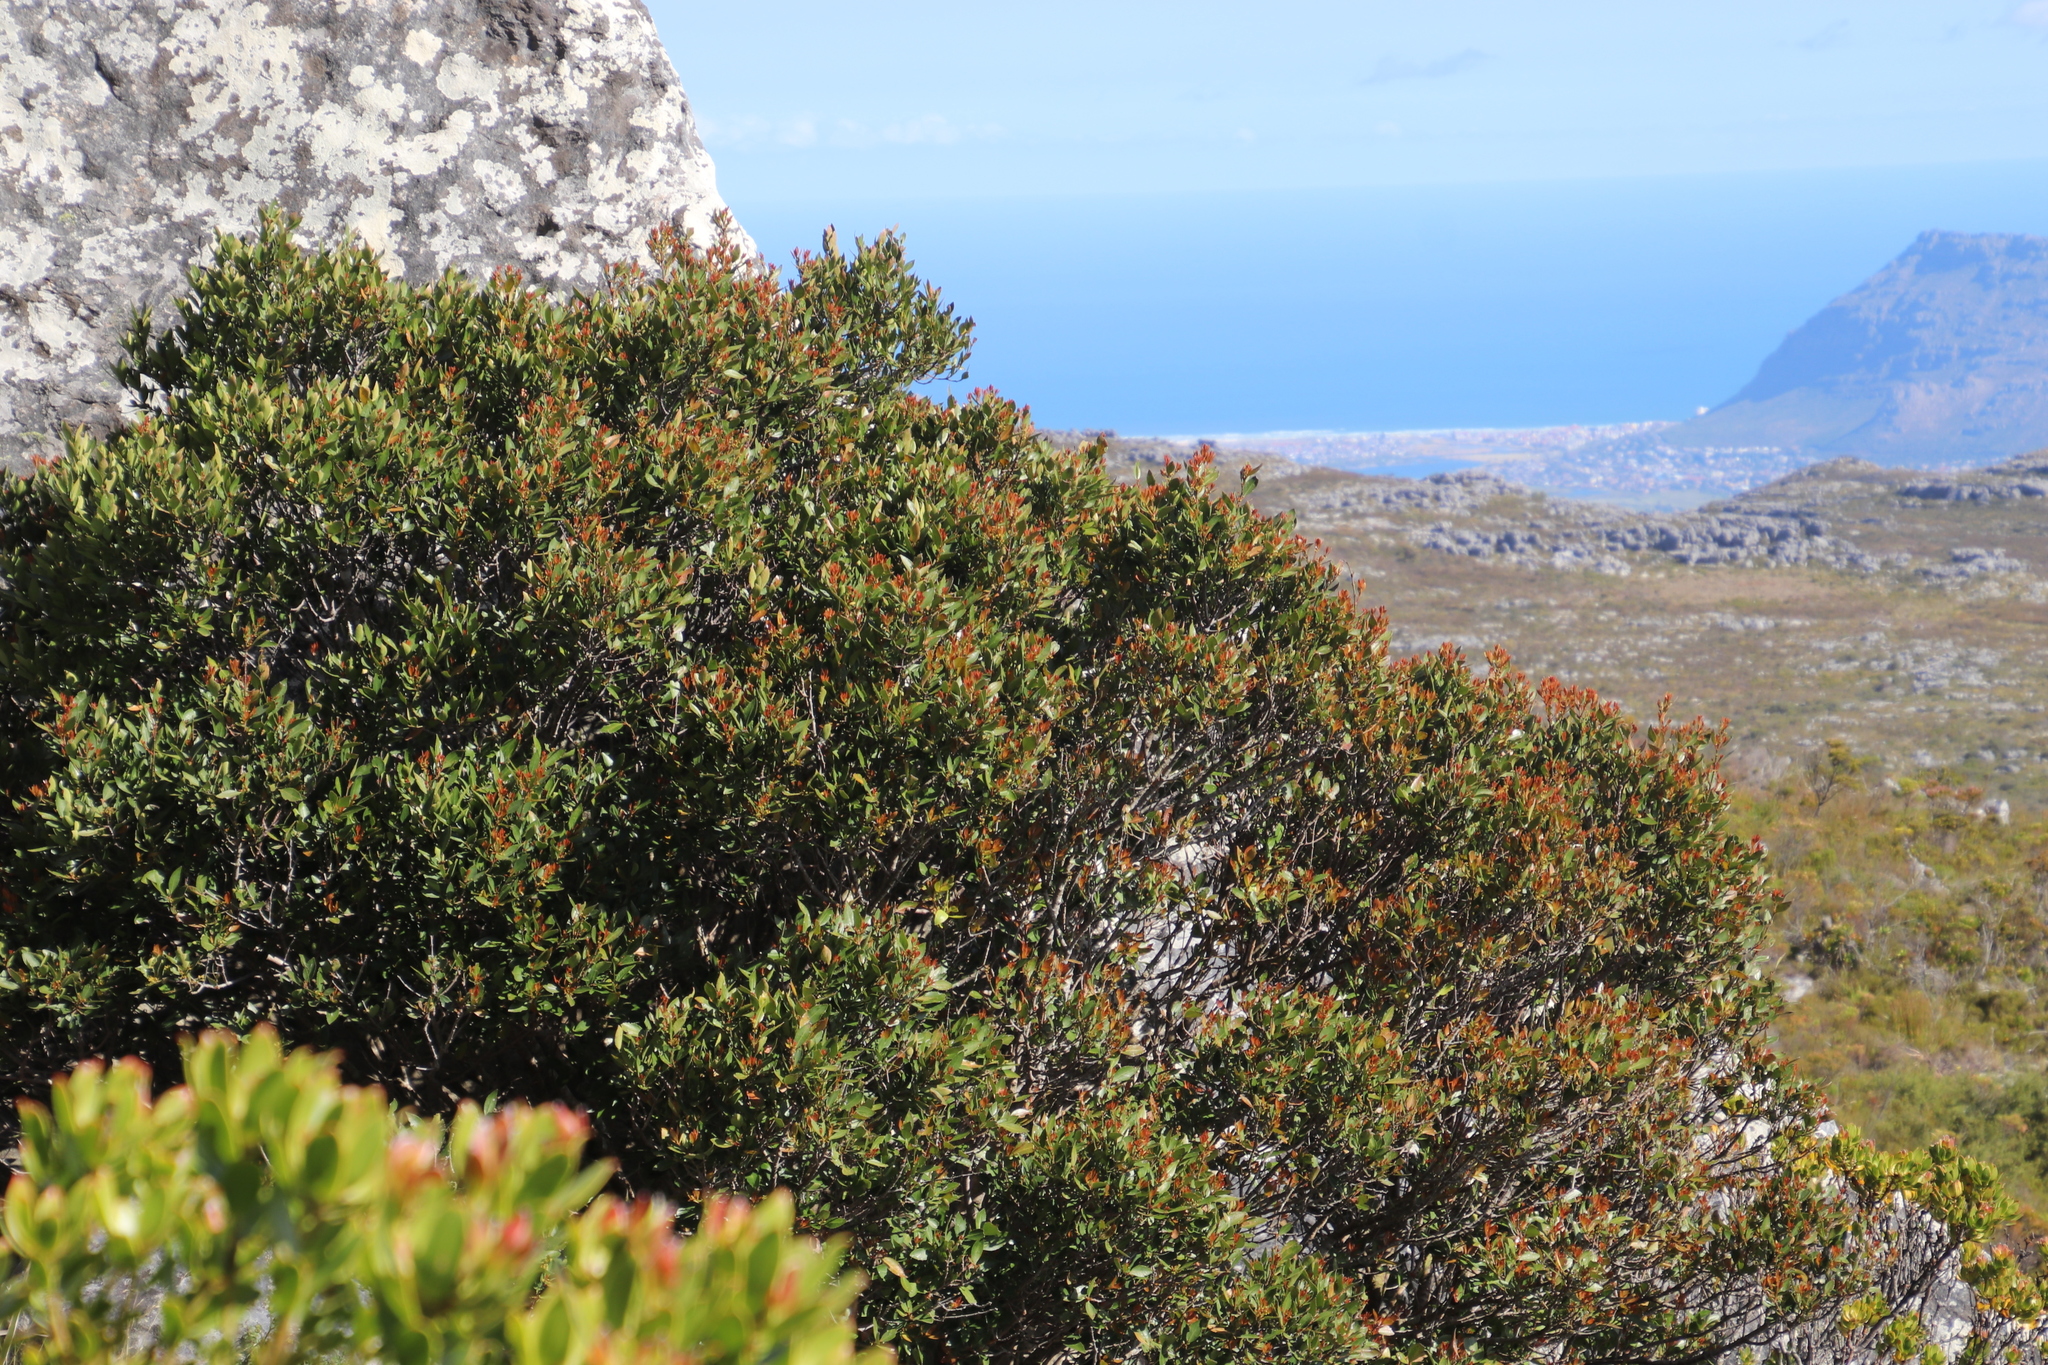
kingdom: Plantae
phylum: Tracheophyta
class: Magnoliopsida
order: Celastrales
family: Celastraceae
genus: Elaeodendron
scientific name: Elaeodendron schinoides
